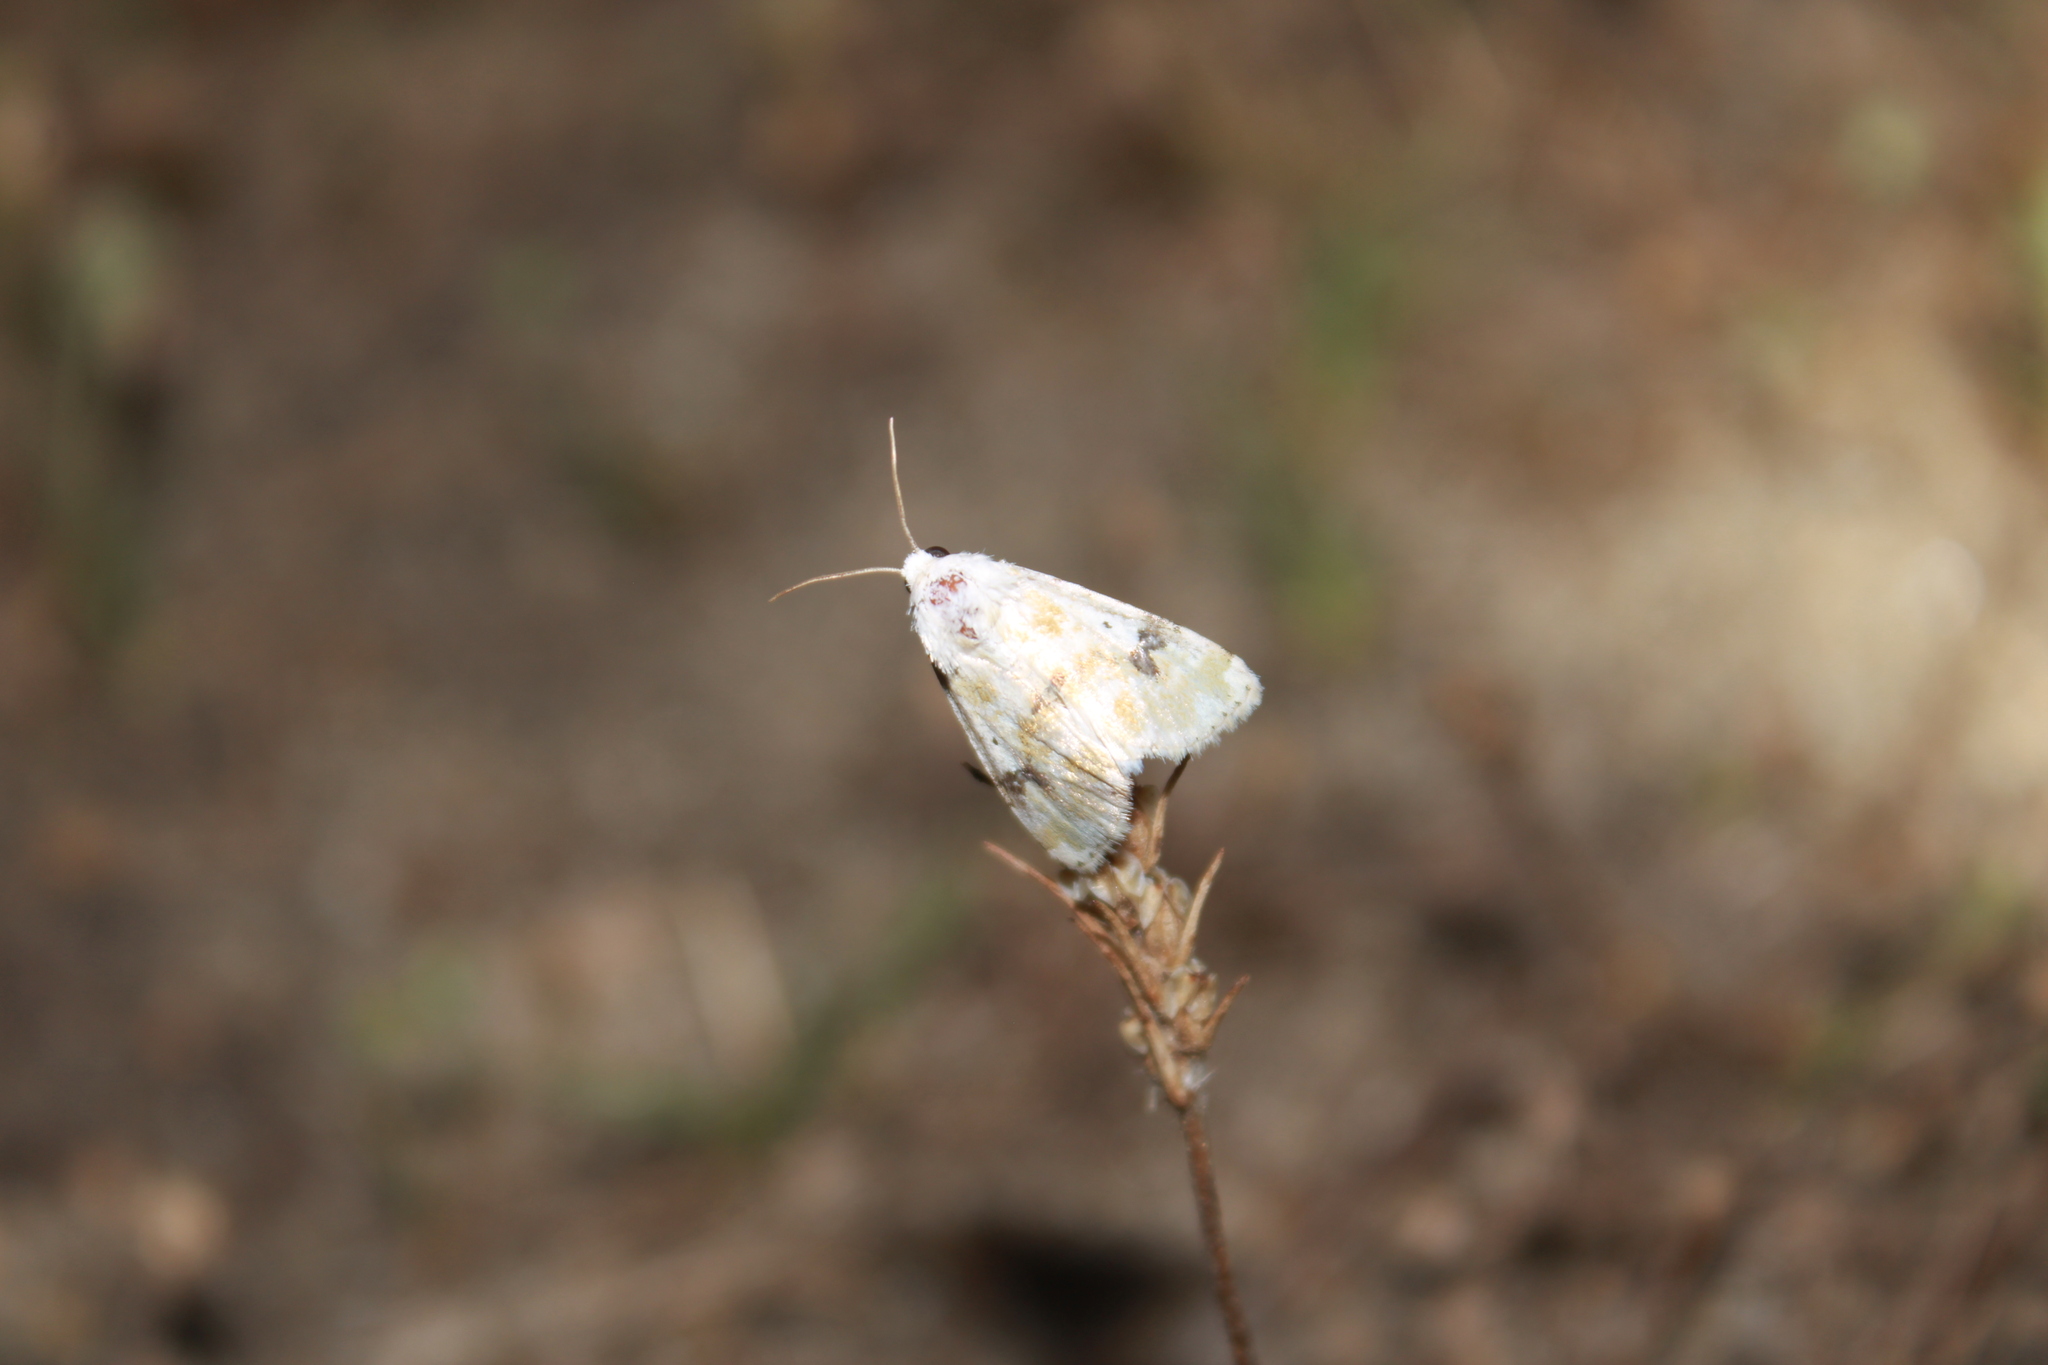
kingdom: Animalia
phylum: Arthropoda
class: Insecta
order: Lepidoptera
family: Noctuidae
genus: Schinia
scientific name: Schinia nundina
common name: Goldenrod flower moth
